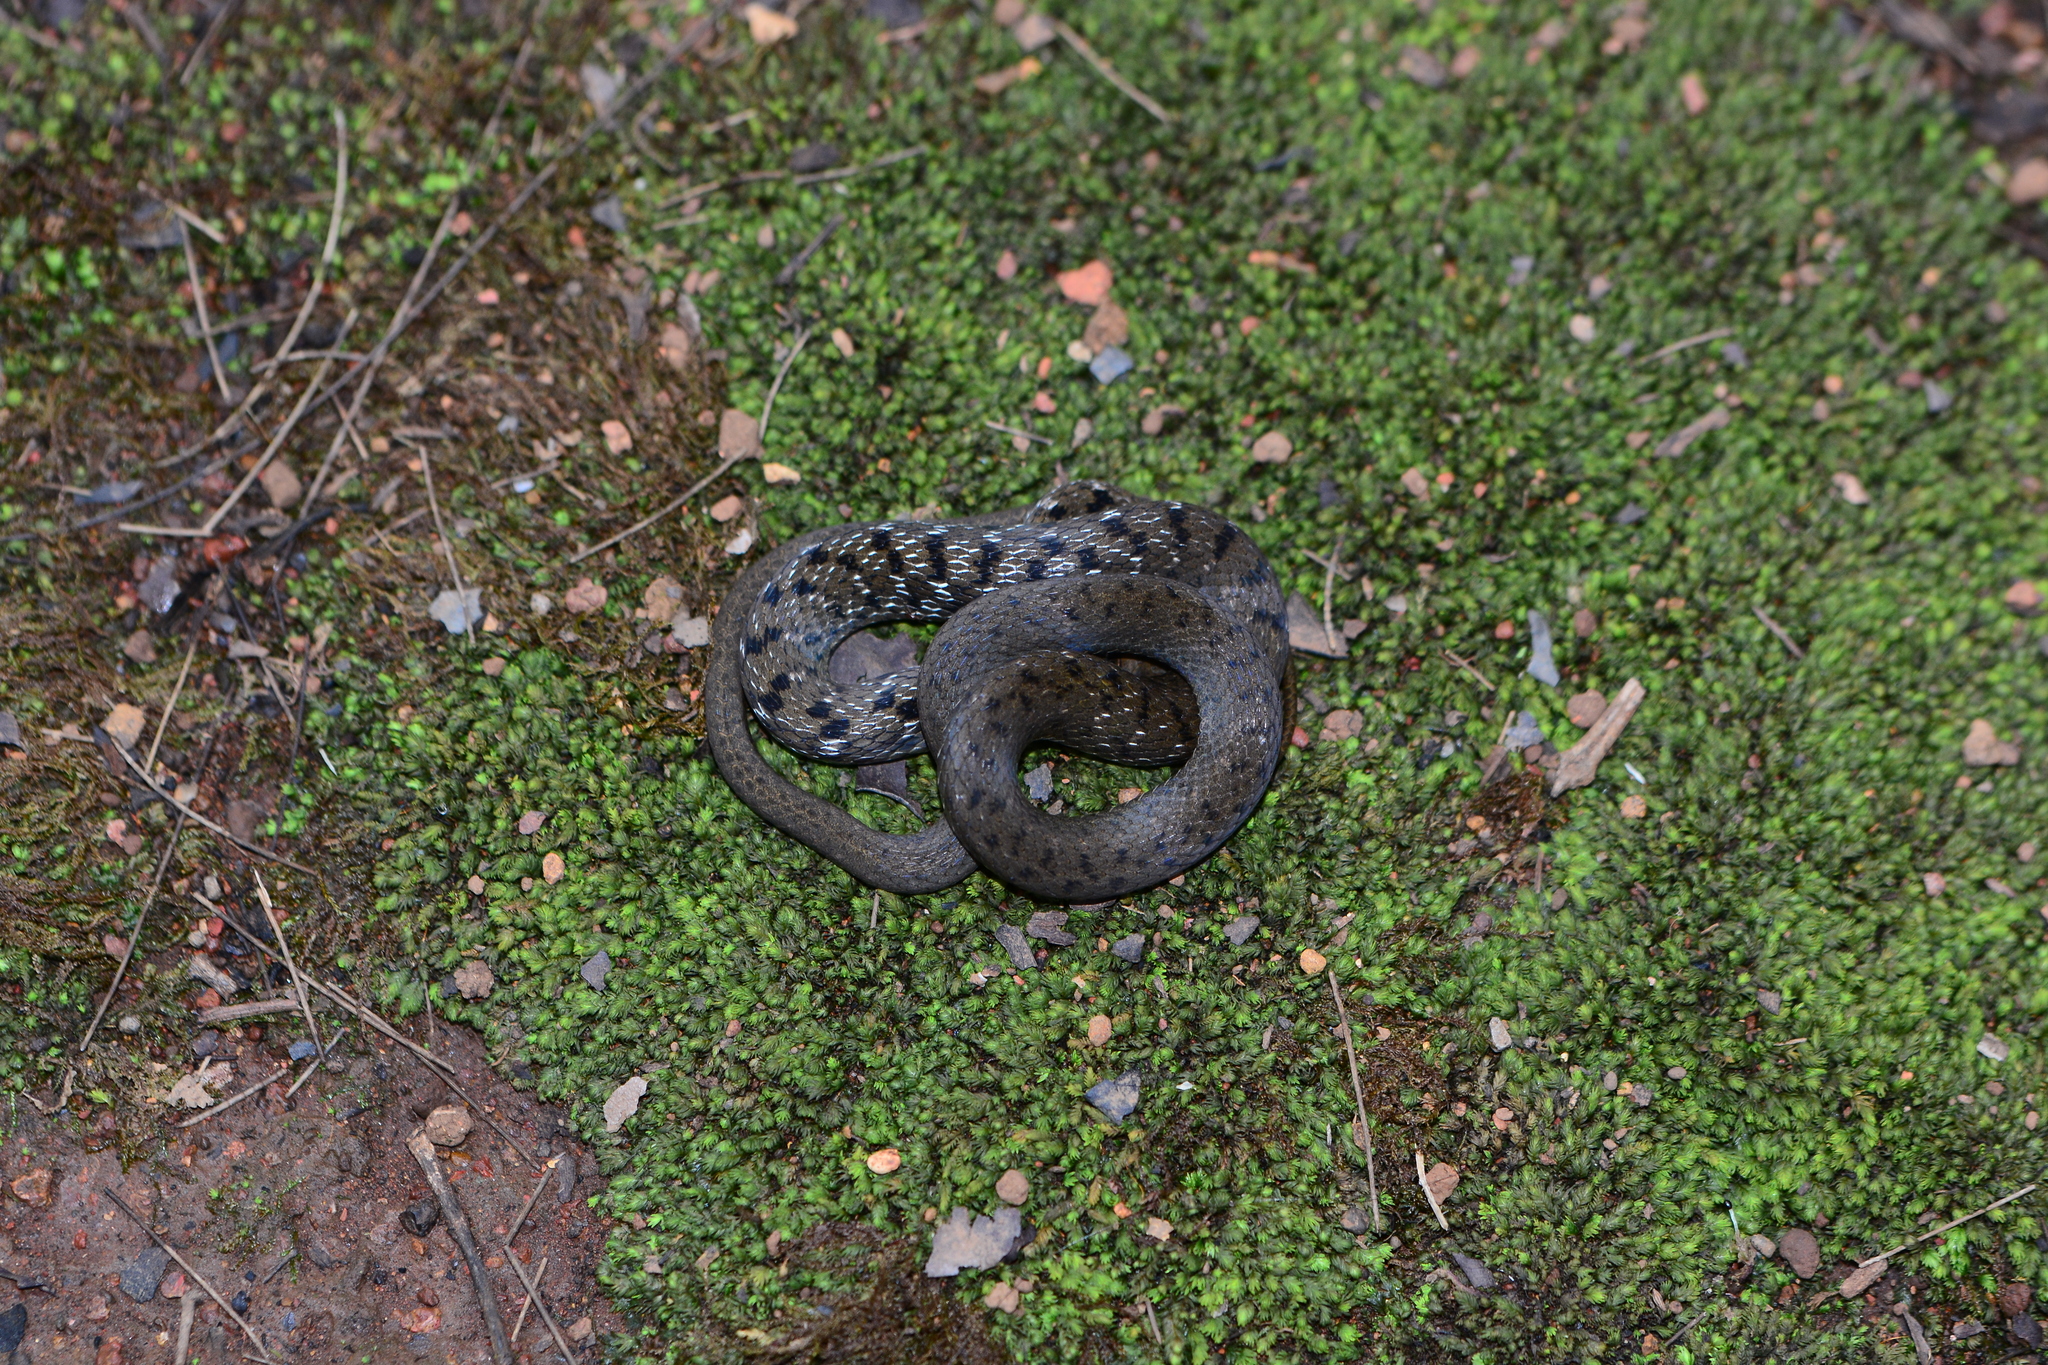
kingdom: Animalia
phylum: Chordata
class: Squamata
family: Colubridae
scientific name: Colubridae
